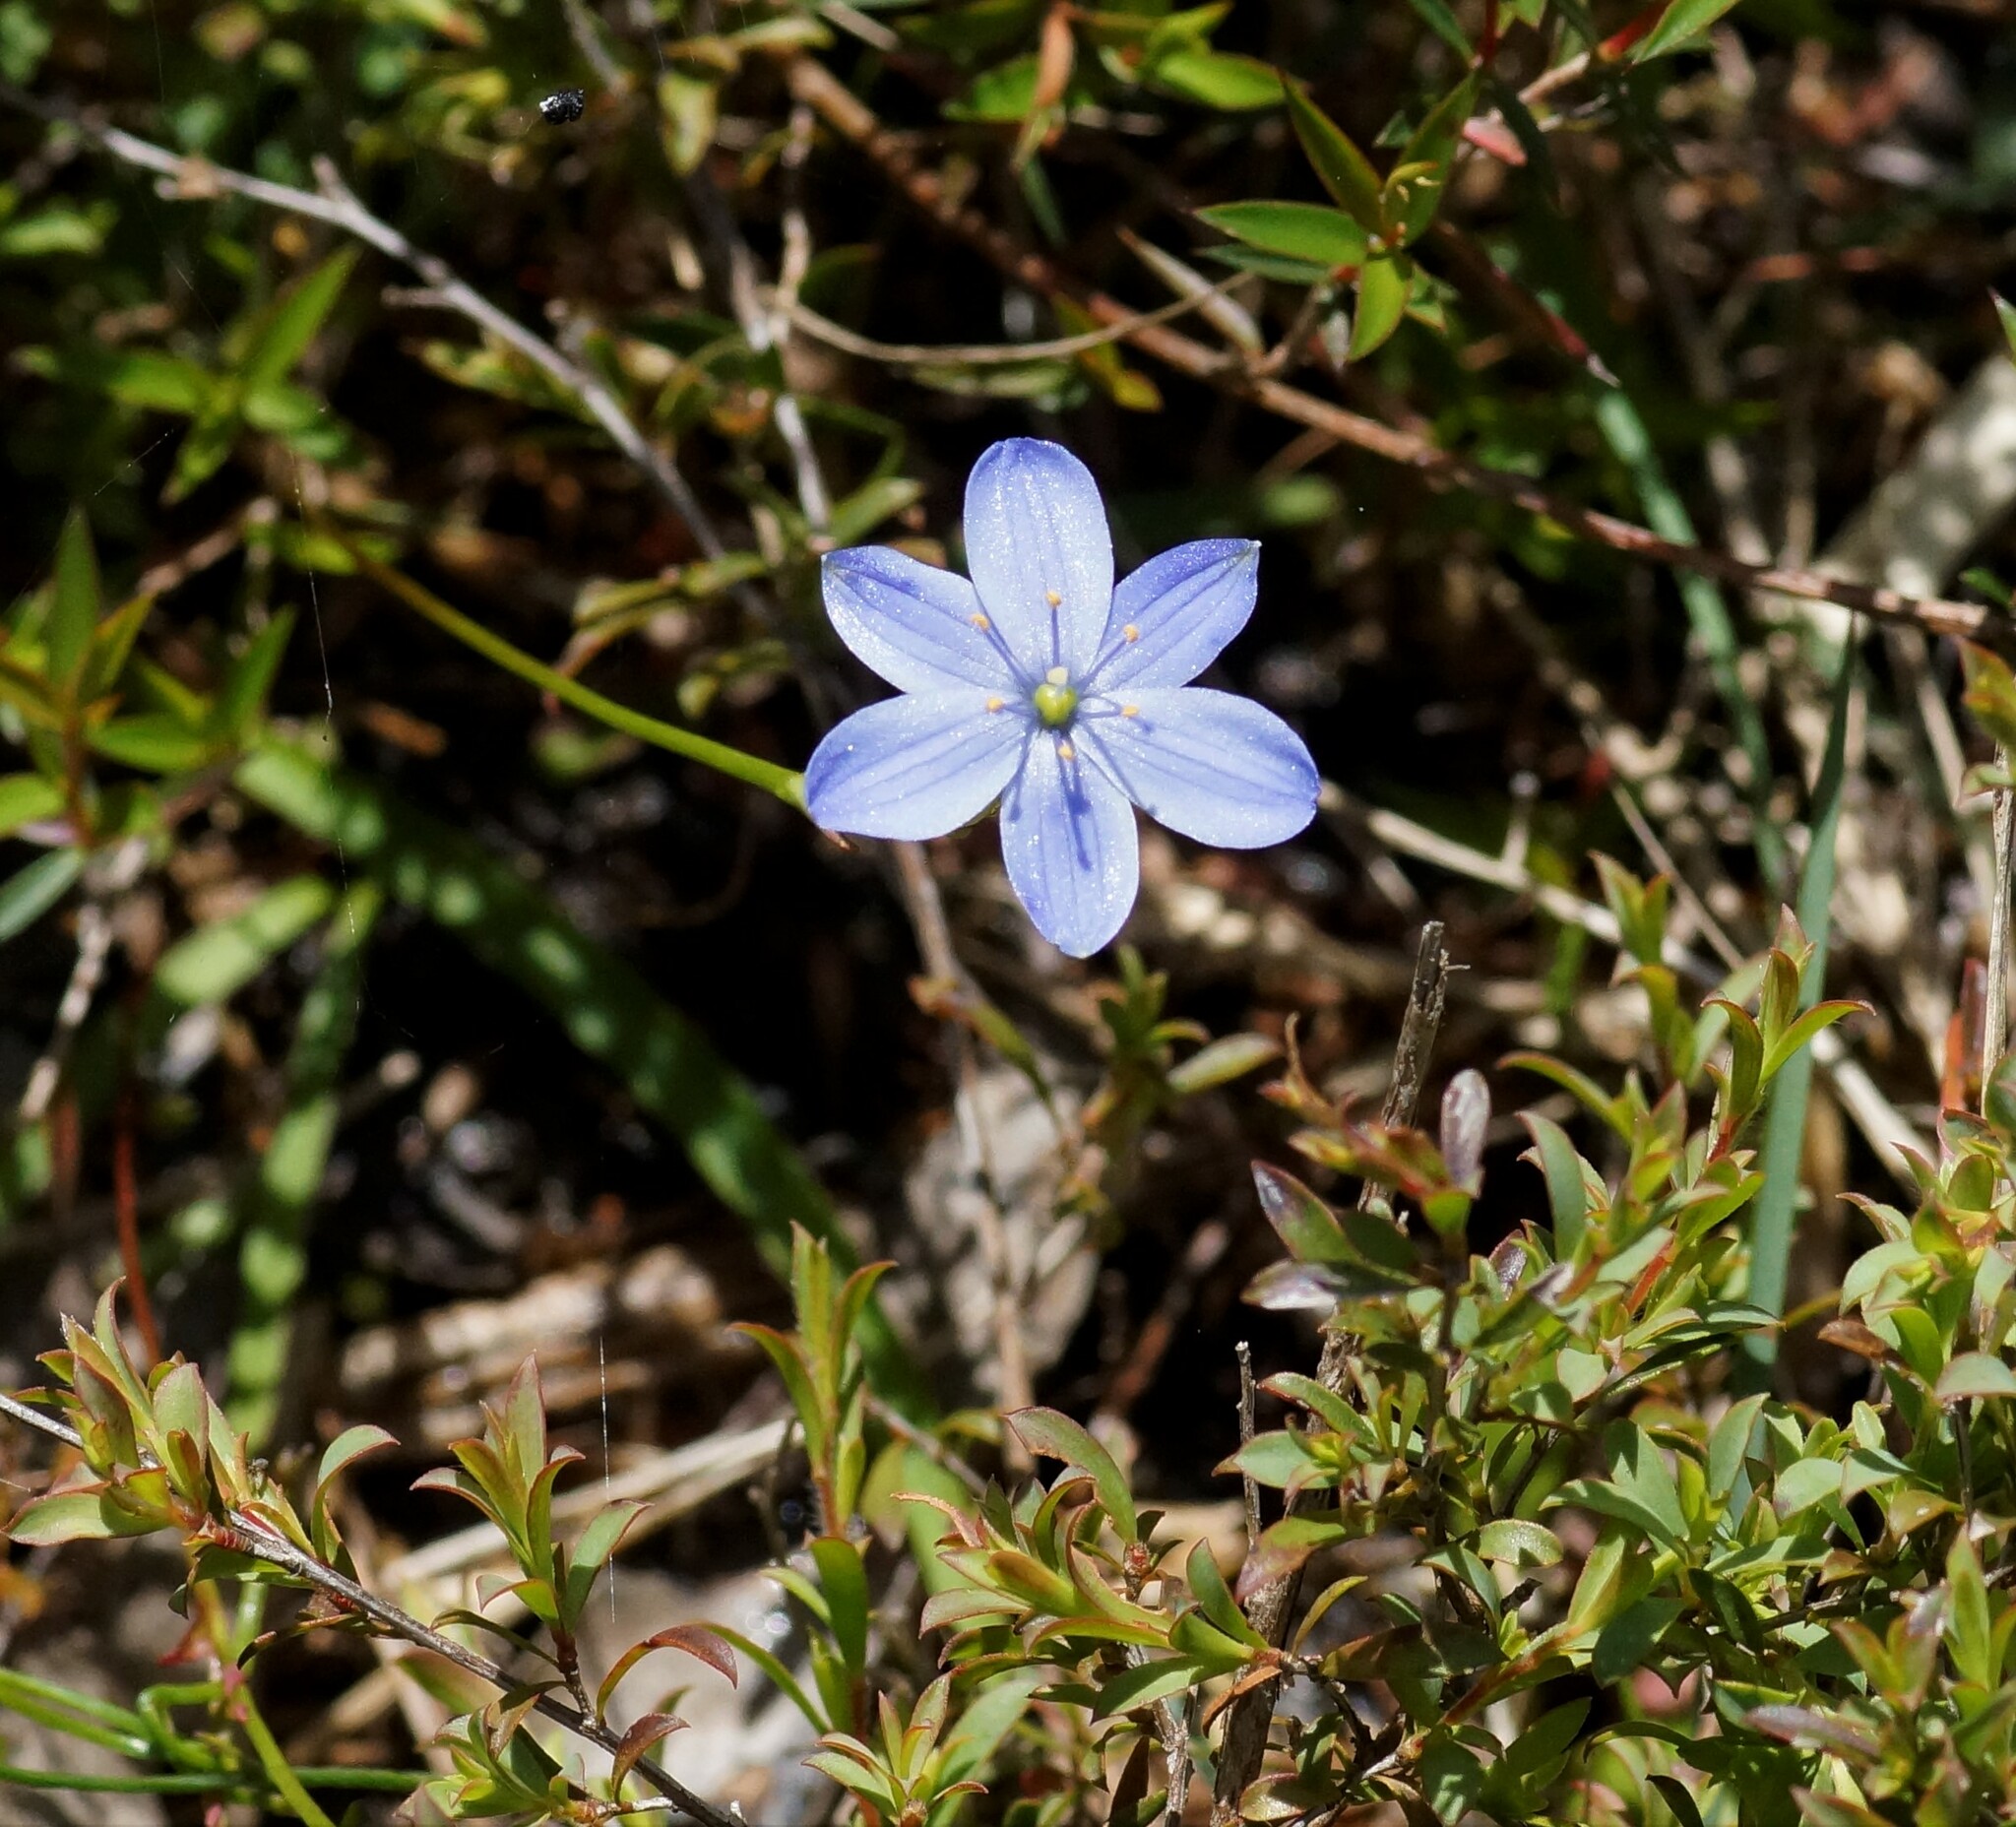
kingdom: Plantae
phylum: Tracheophyta
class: Liliopsida
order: Asparagales
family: Asphodelaceae
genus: Chamaescilla
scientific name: Chamaescilla corymbosa
